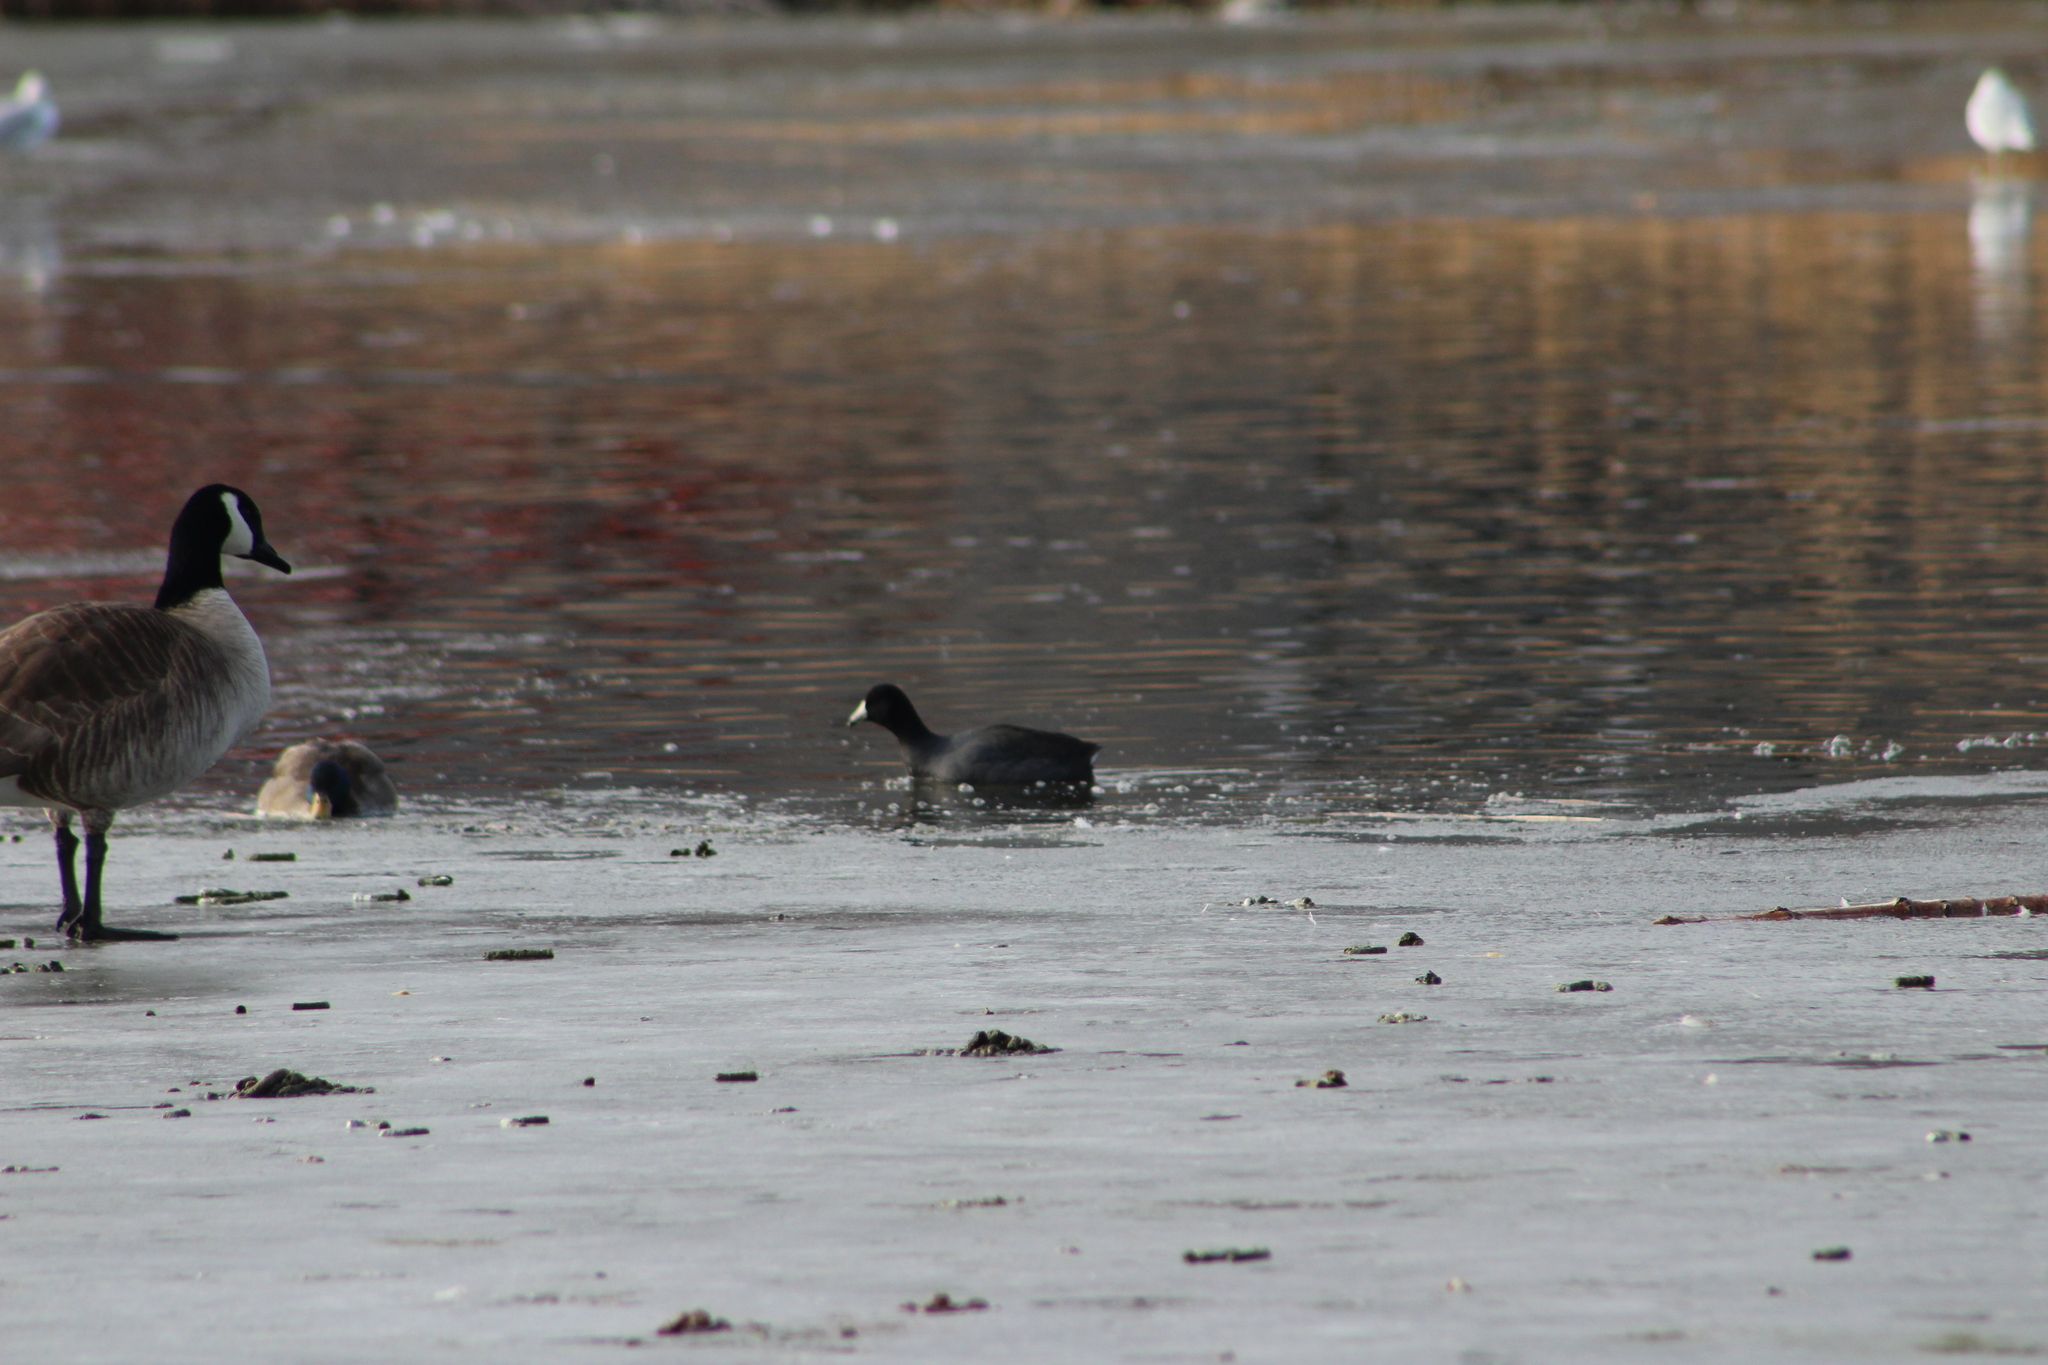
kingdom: Animalia
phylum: Chordata
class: Aves
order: Gruiformes
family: Rallidae
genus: Fulica
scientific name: Fulica americana
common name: American coot
